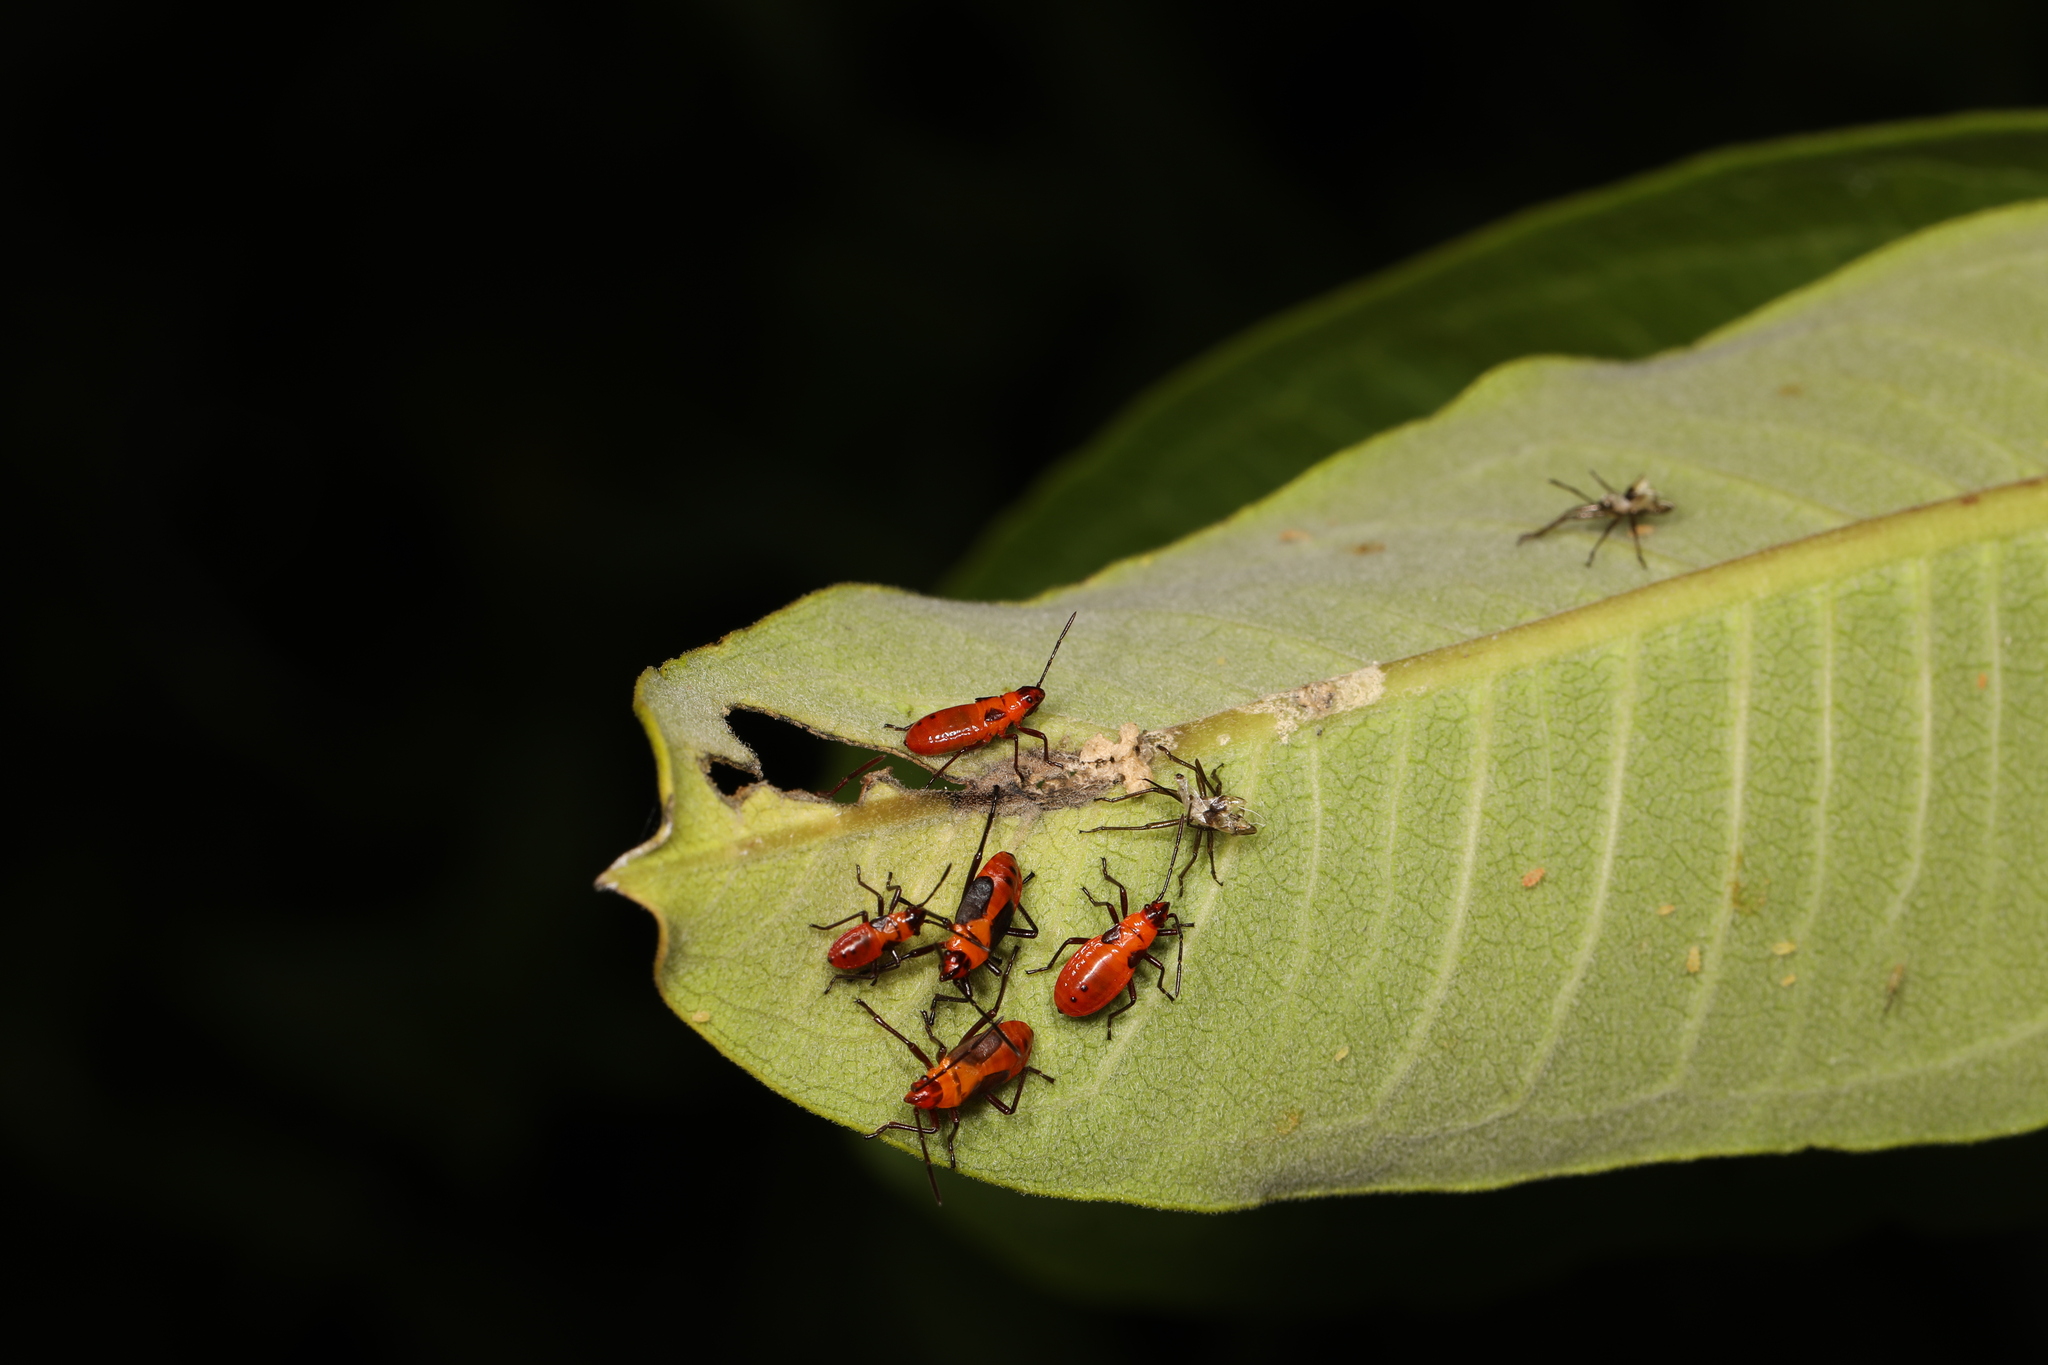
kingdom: Animalia
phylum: Arthropoda
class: Insecta
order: Hemiptera
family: Lygaeidae
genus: Oncopeltus
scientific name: Oncopeltus fasciatus
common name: Large milkweed bug
